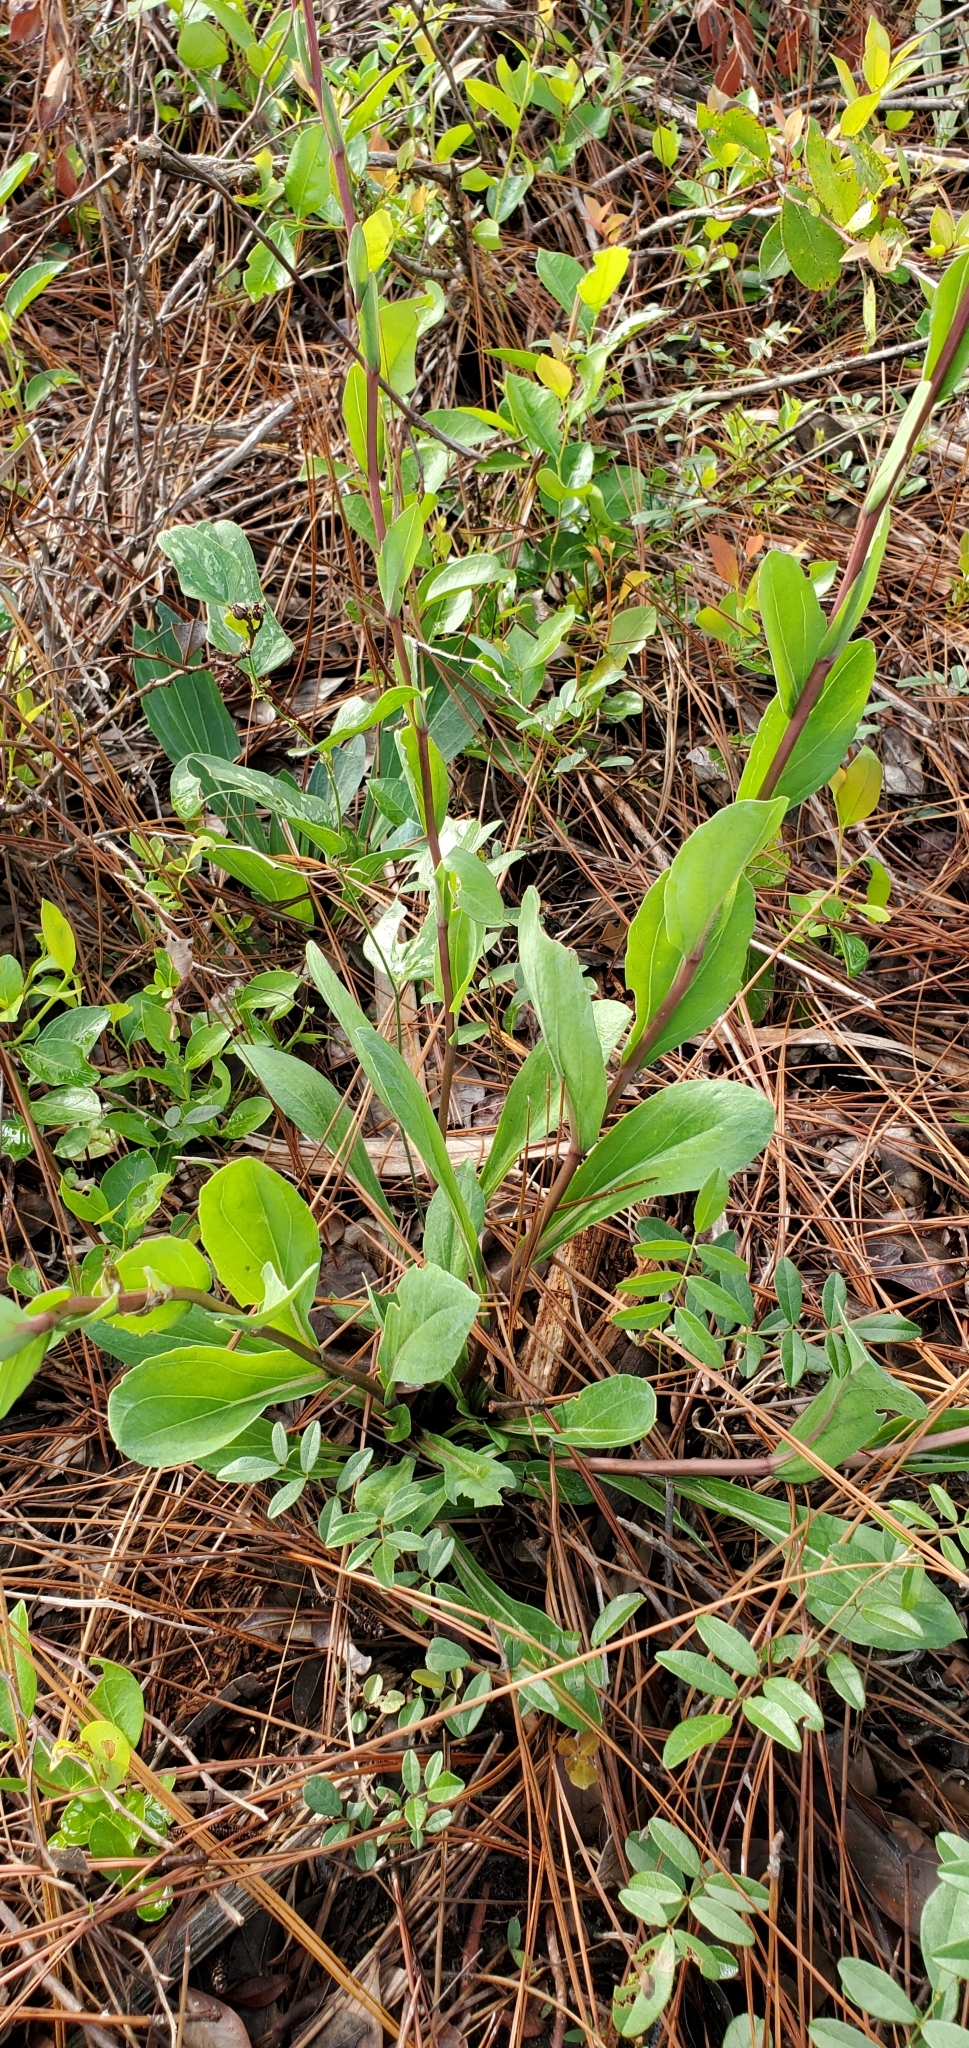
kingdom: Plantae
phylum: Tracheophyta
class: Magnoliopsida
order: Asterales
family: Asteraceae
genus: Carphephorus
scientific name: Carphephorus odoratissimus
